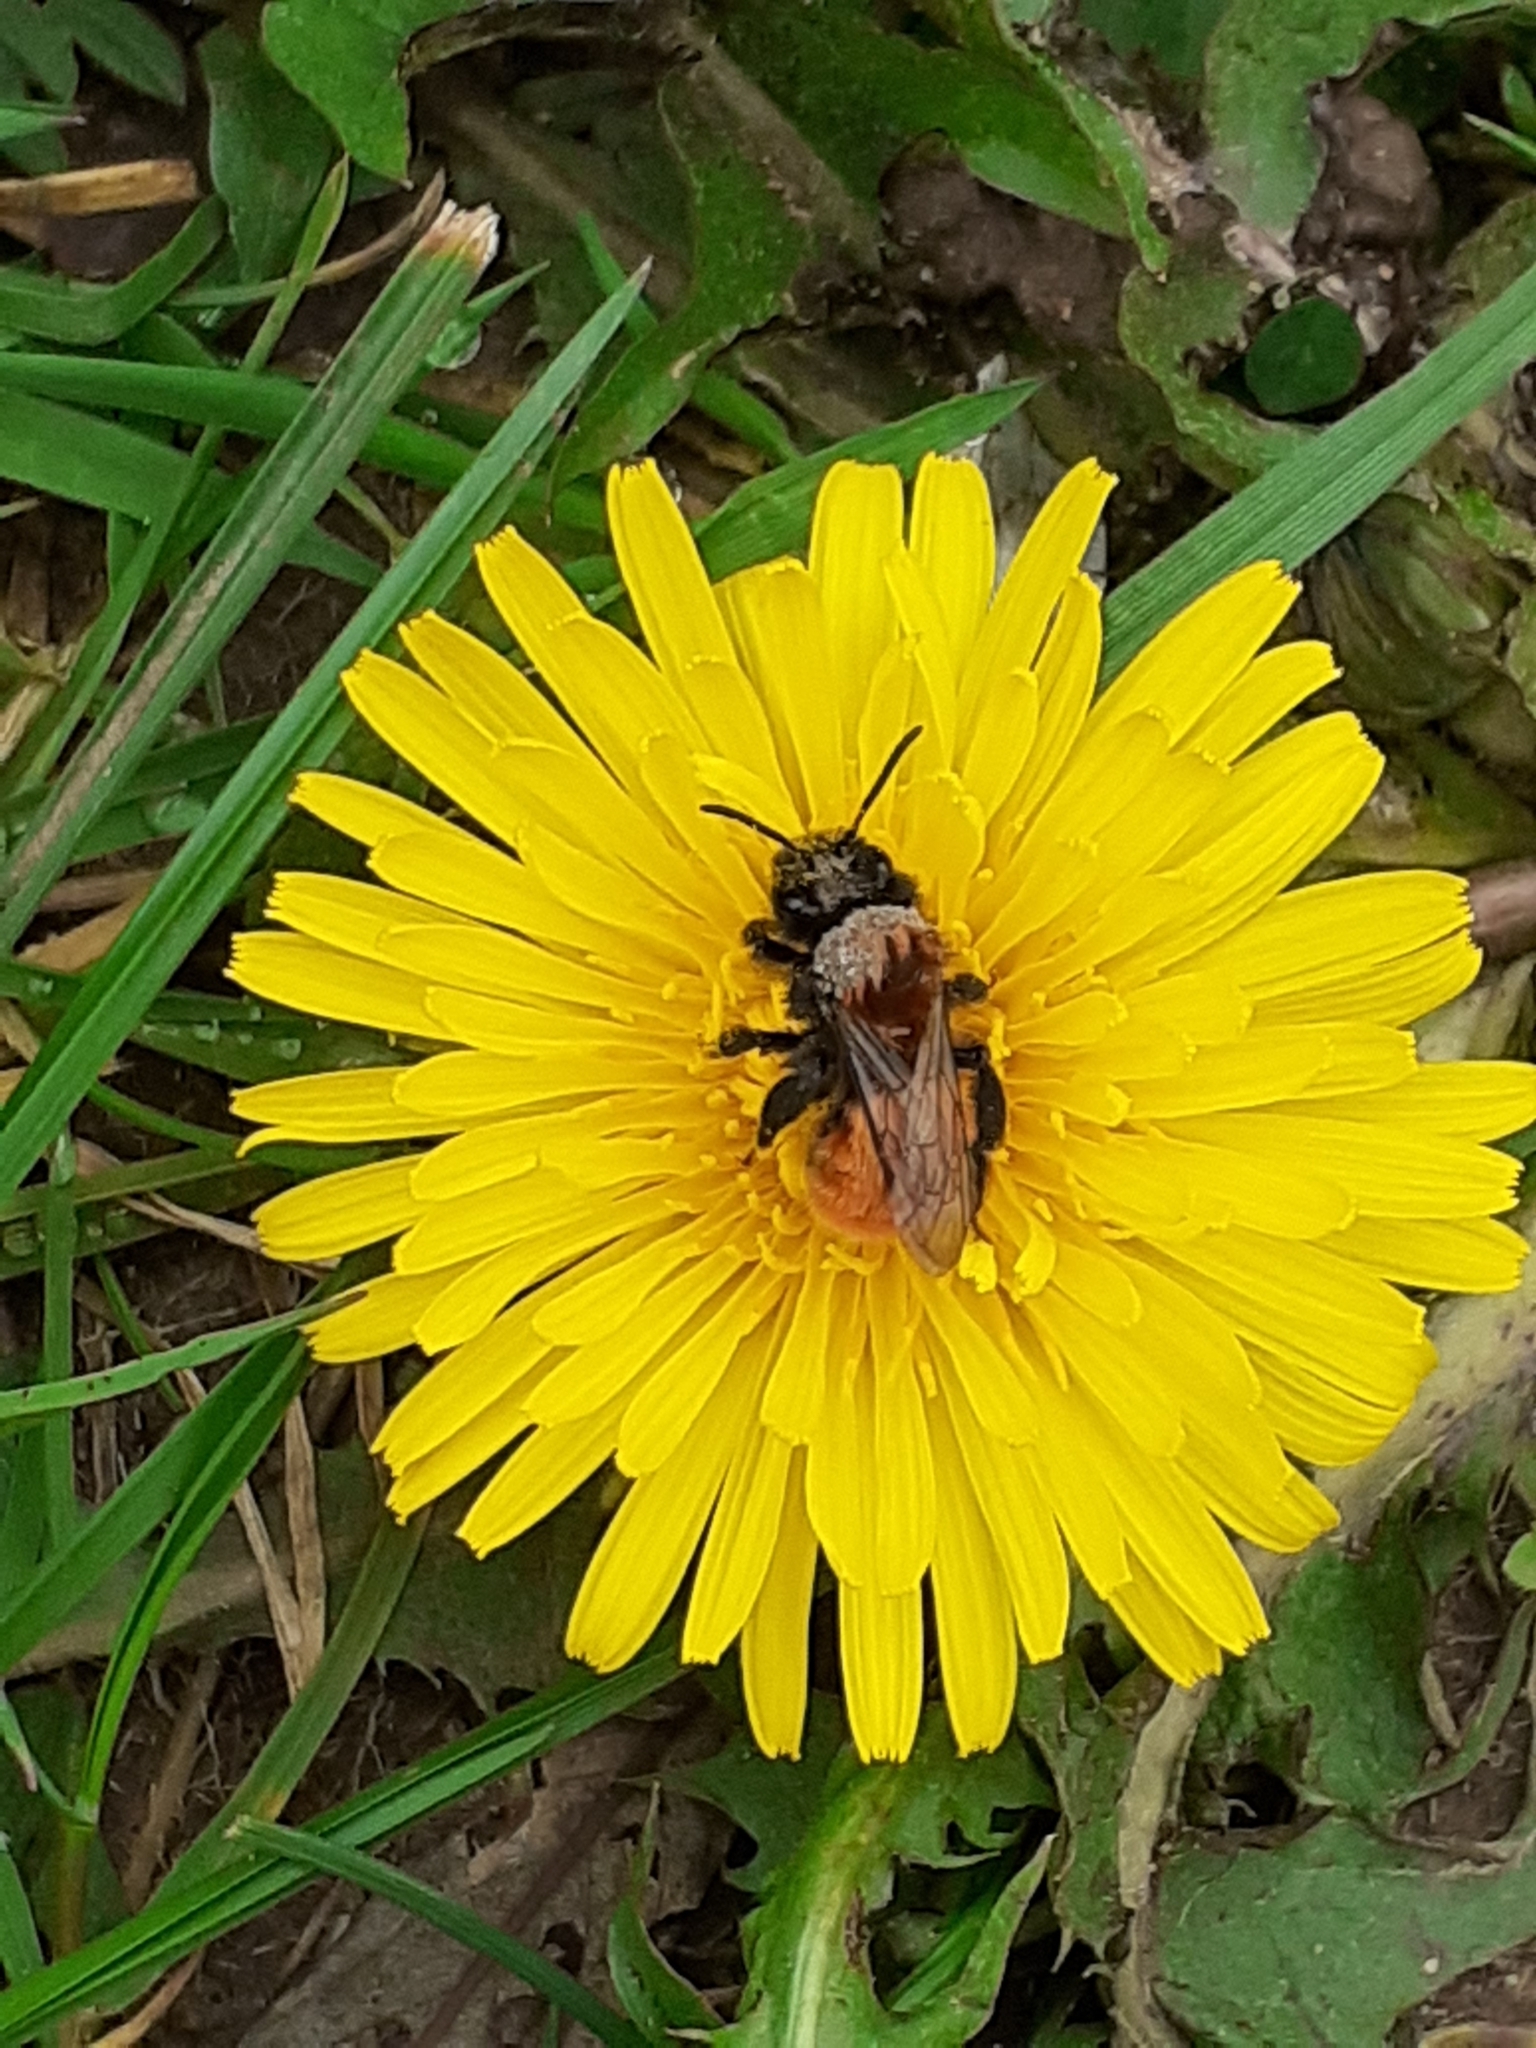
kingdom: Animalia
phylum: Arthropoda
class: Insecta
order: Hymenoptera
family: Andrenidae
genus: Andrena
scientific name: Andrena fulva
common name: Tawny mining bee
